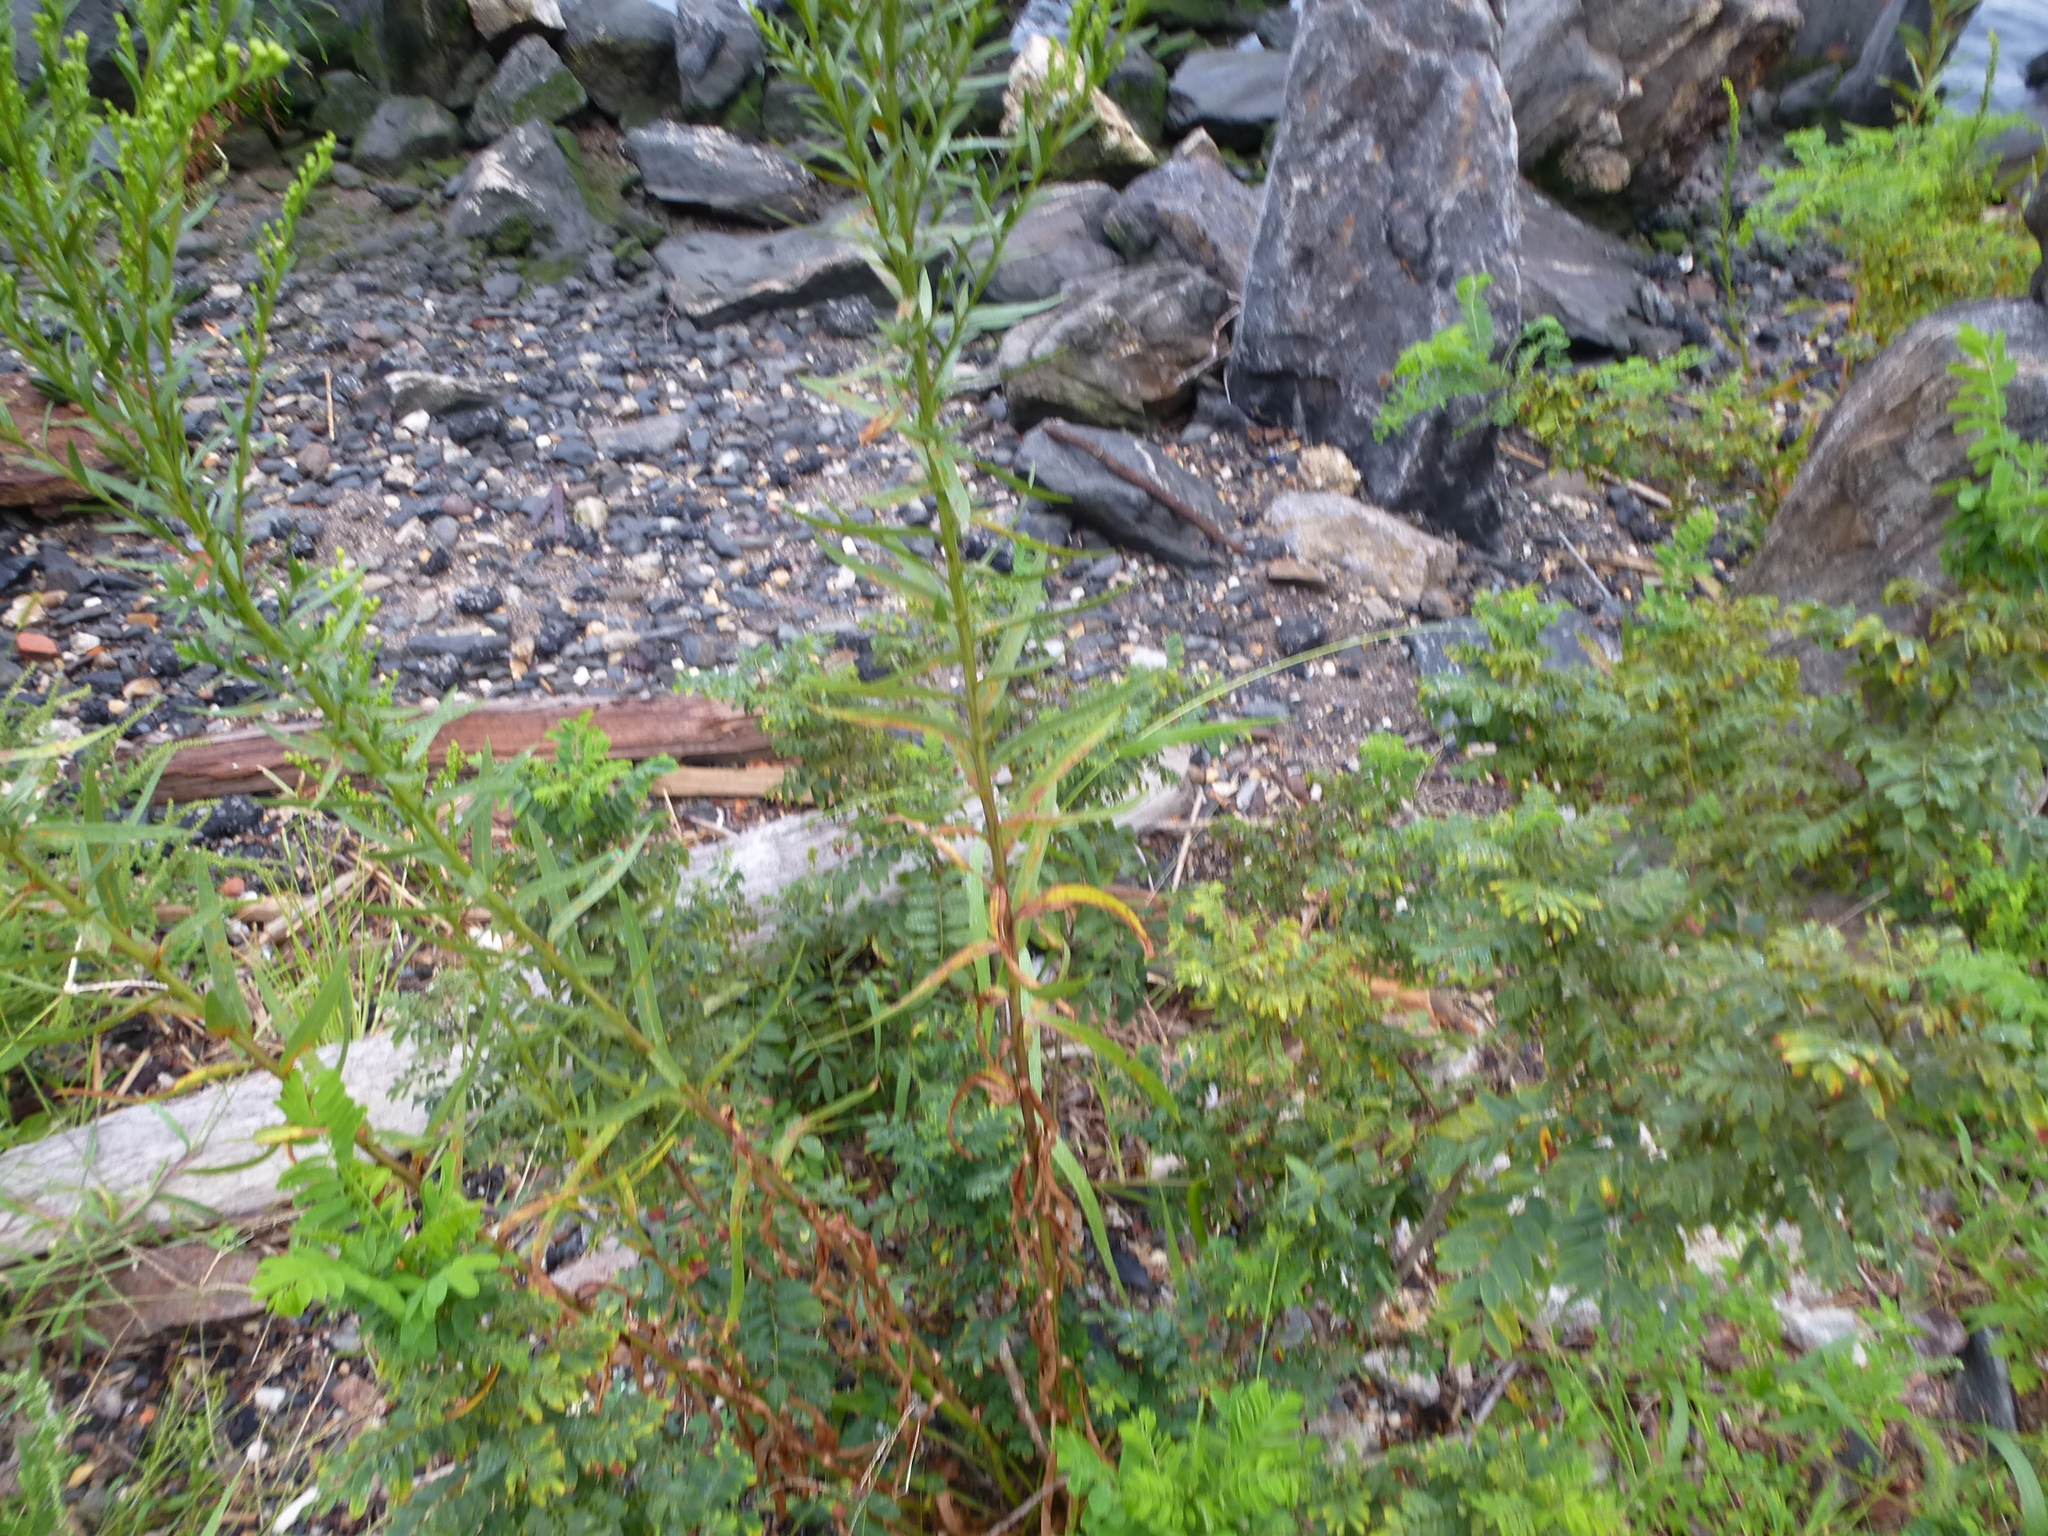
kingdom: Plantae
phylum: Tracheophyta
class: Magnoliopsida
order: Asterales
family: Asteraceae
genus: Solidago
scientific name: Solidago sempervirens
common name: Salt-marsh goldenrod
